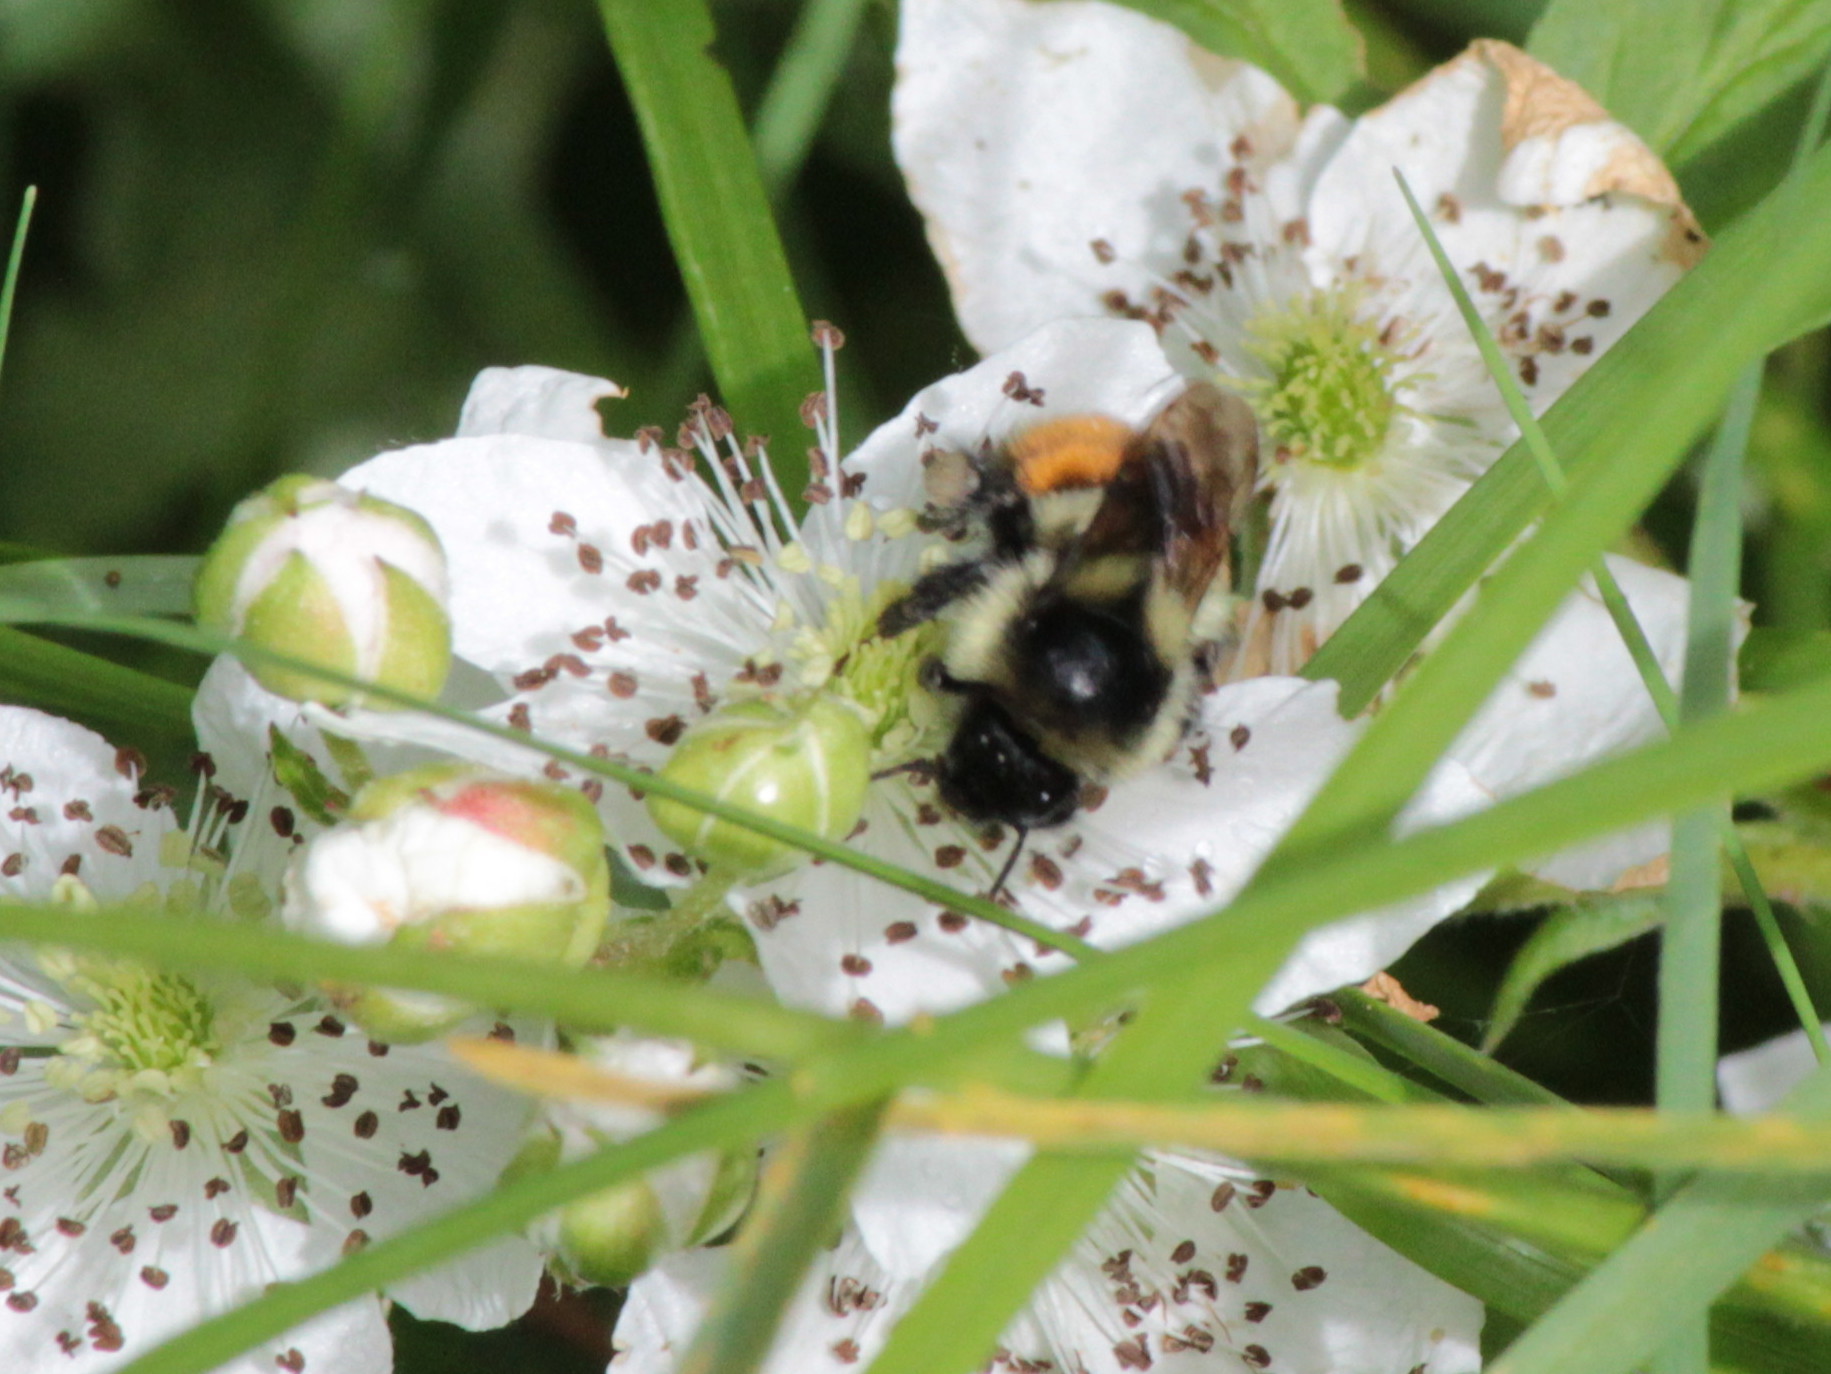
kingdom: Animalia
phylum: Arthropoda
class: Insecta
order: Hymenoptera
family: Apidae
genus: Bombus
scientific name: Bombus ternarius
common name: Tri-colored bumble bee
